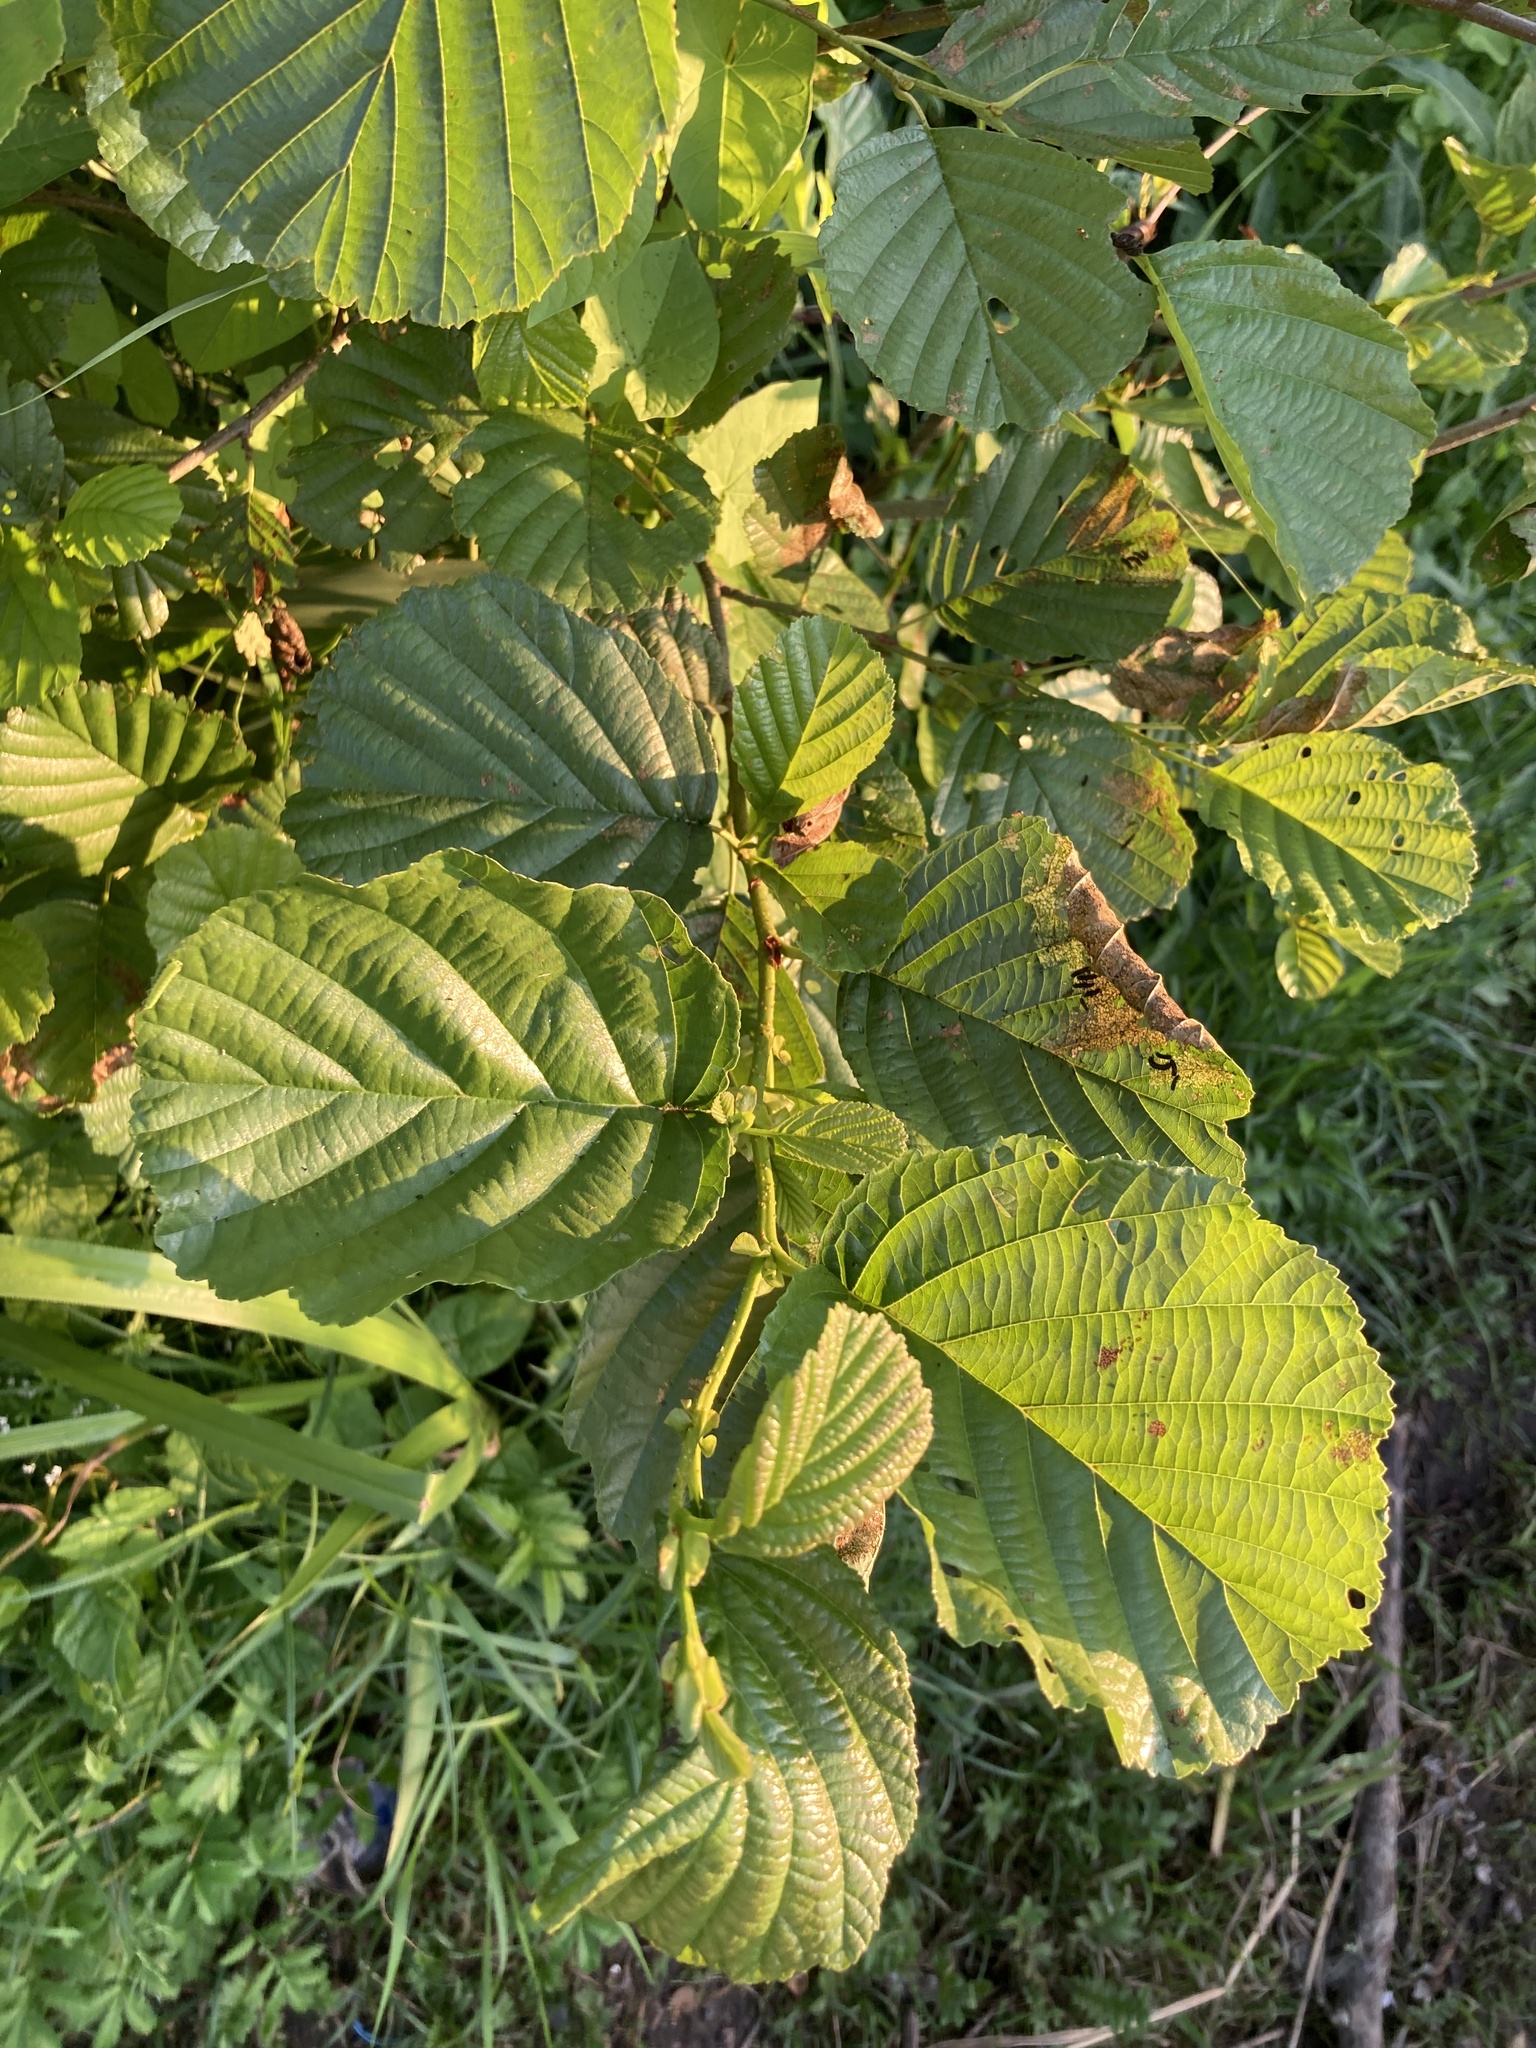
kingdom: Plantae
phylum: Tracheophyta
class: Magnoliopsida
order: Fagales
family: Betulaceae
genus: Alnus
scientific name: Alnus glutinosa
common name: Black alder
